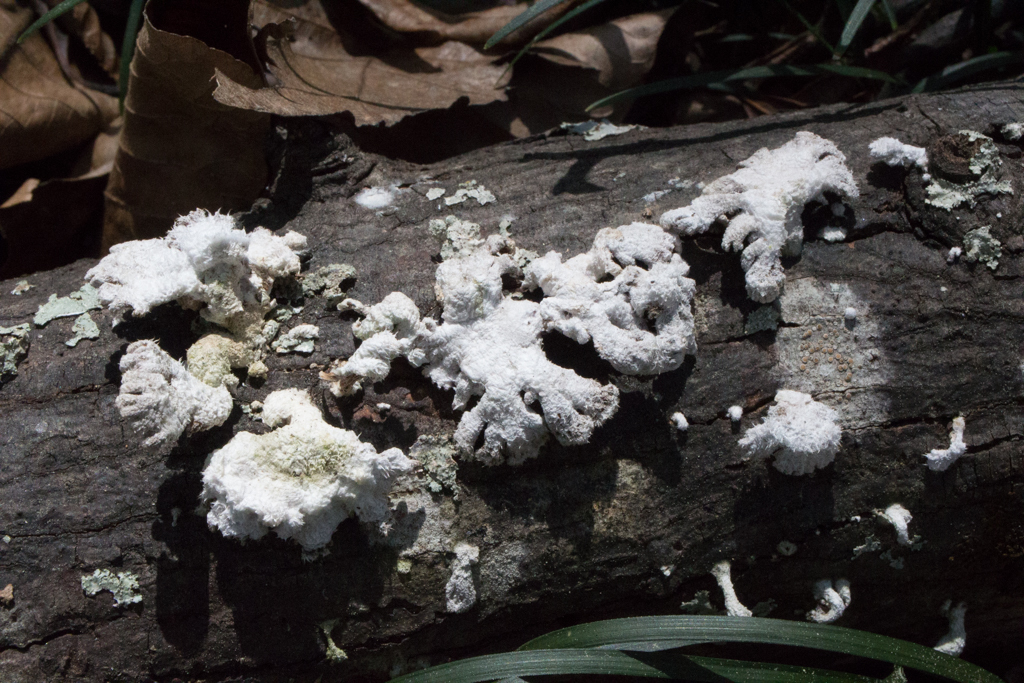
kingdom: Fungi
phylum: Basidiomycota
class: Agaricomycetes
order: Agaricales
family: Schizophyllaceae
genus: Schizophyllum
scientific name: Schizophyllum commune
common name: Common porecrust
